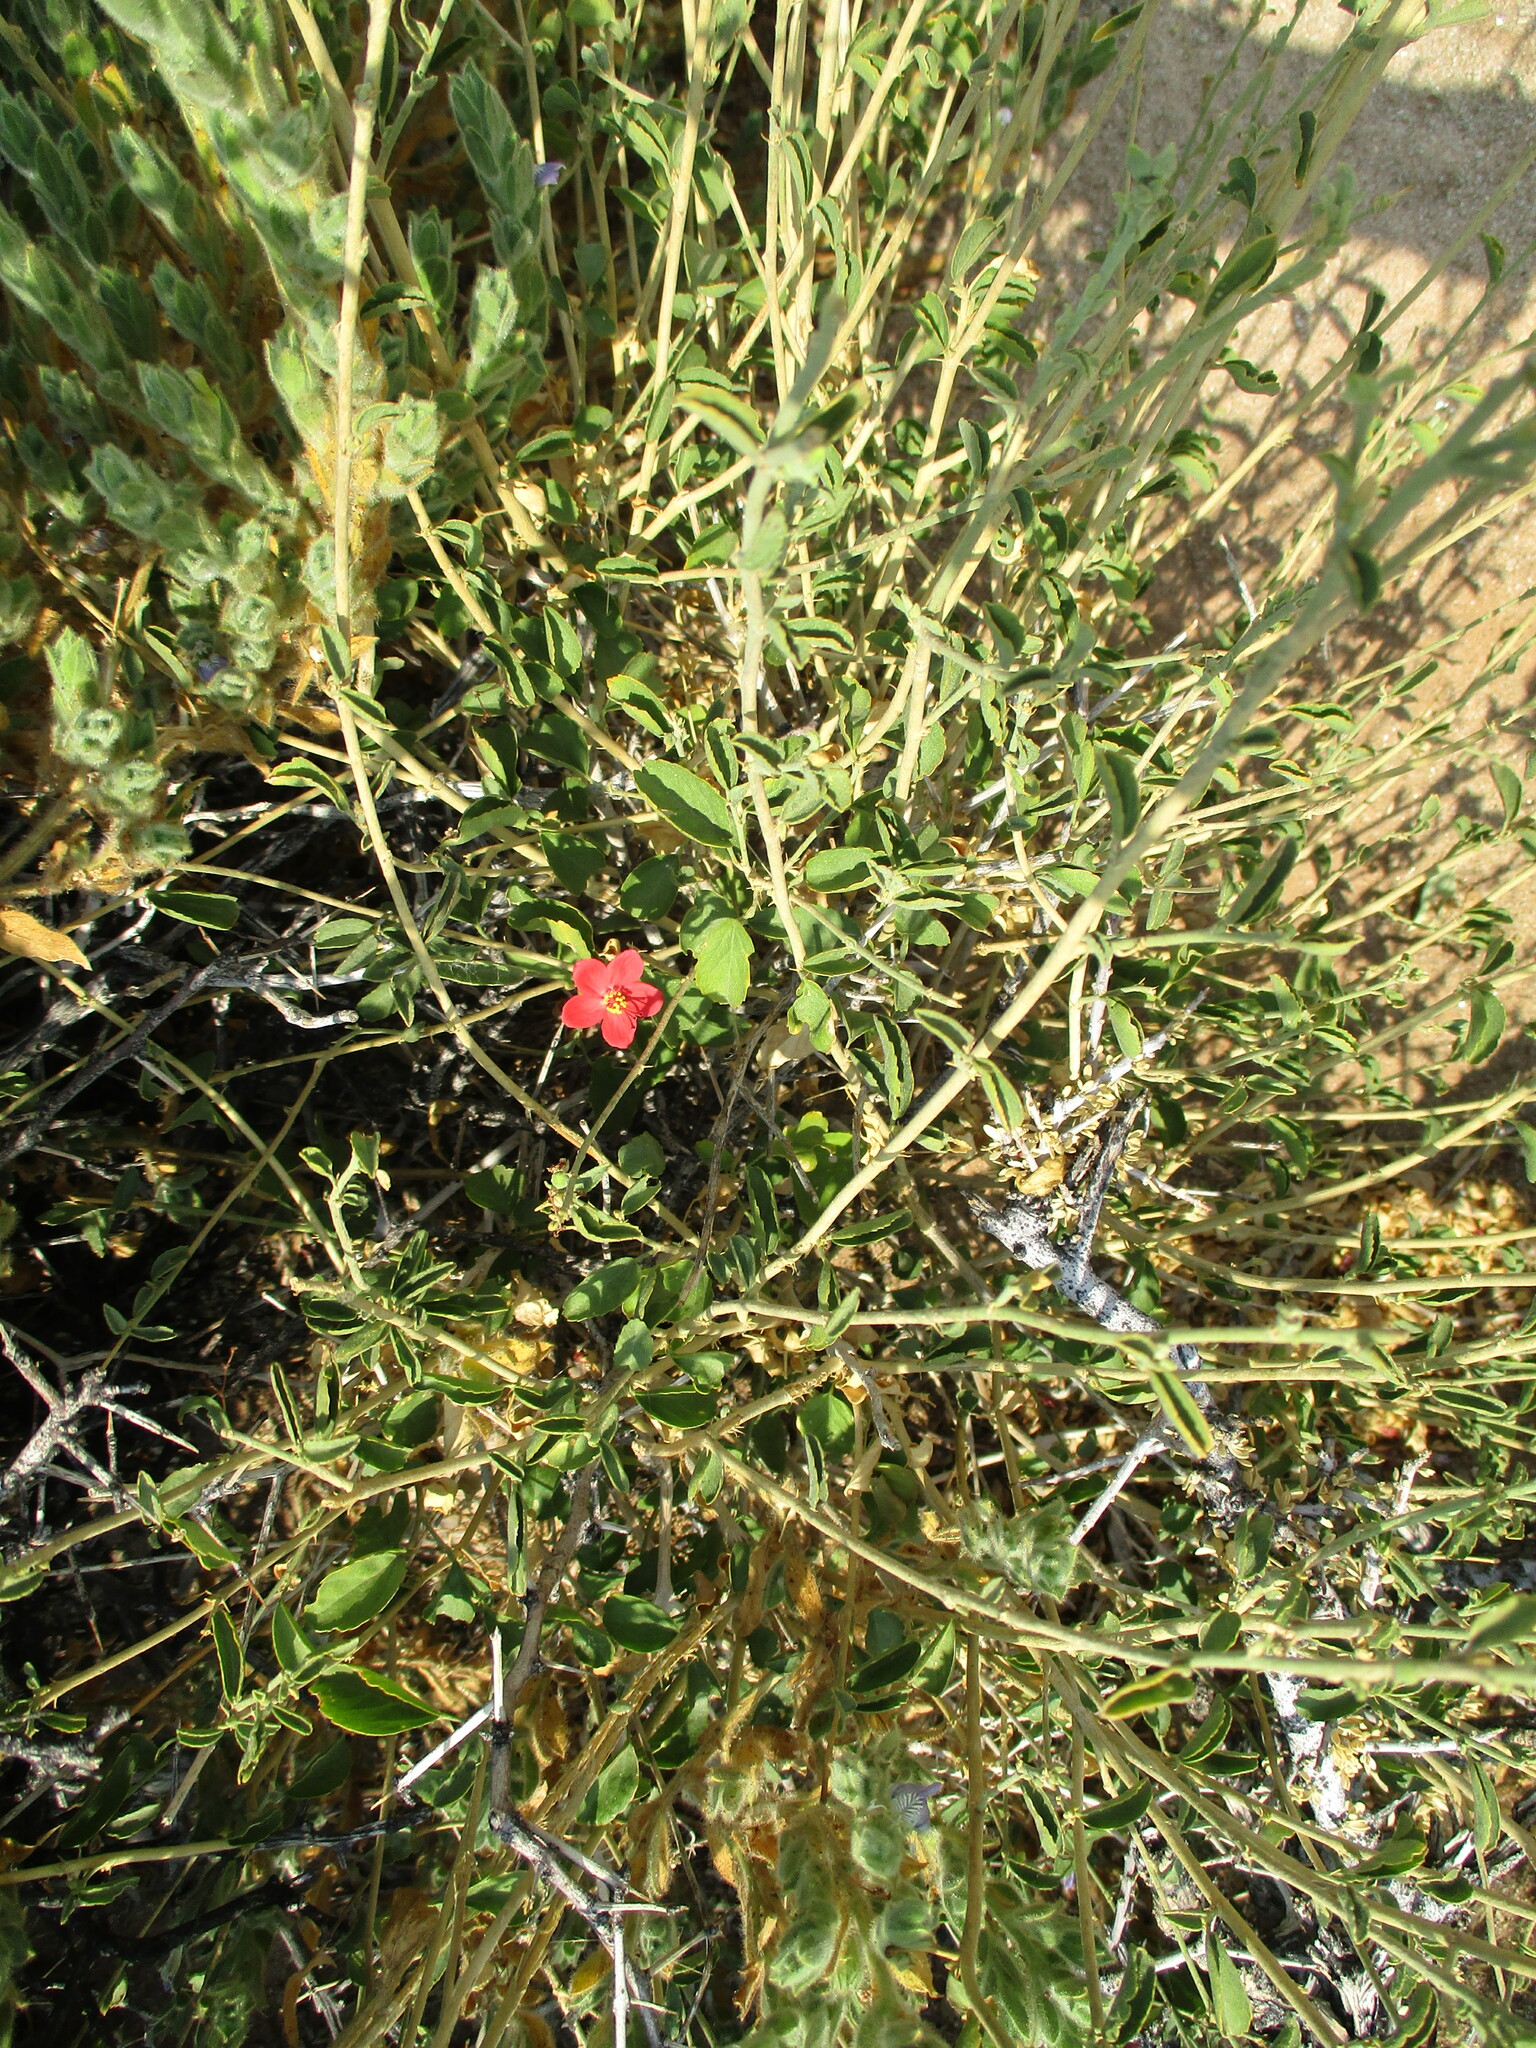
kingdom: Plantae
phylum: Tracheophyta
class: Magnoliopsida
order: Malvales
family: Malvaceae
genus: Hibiscus
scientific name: Hibiscus elliottiae
